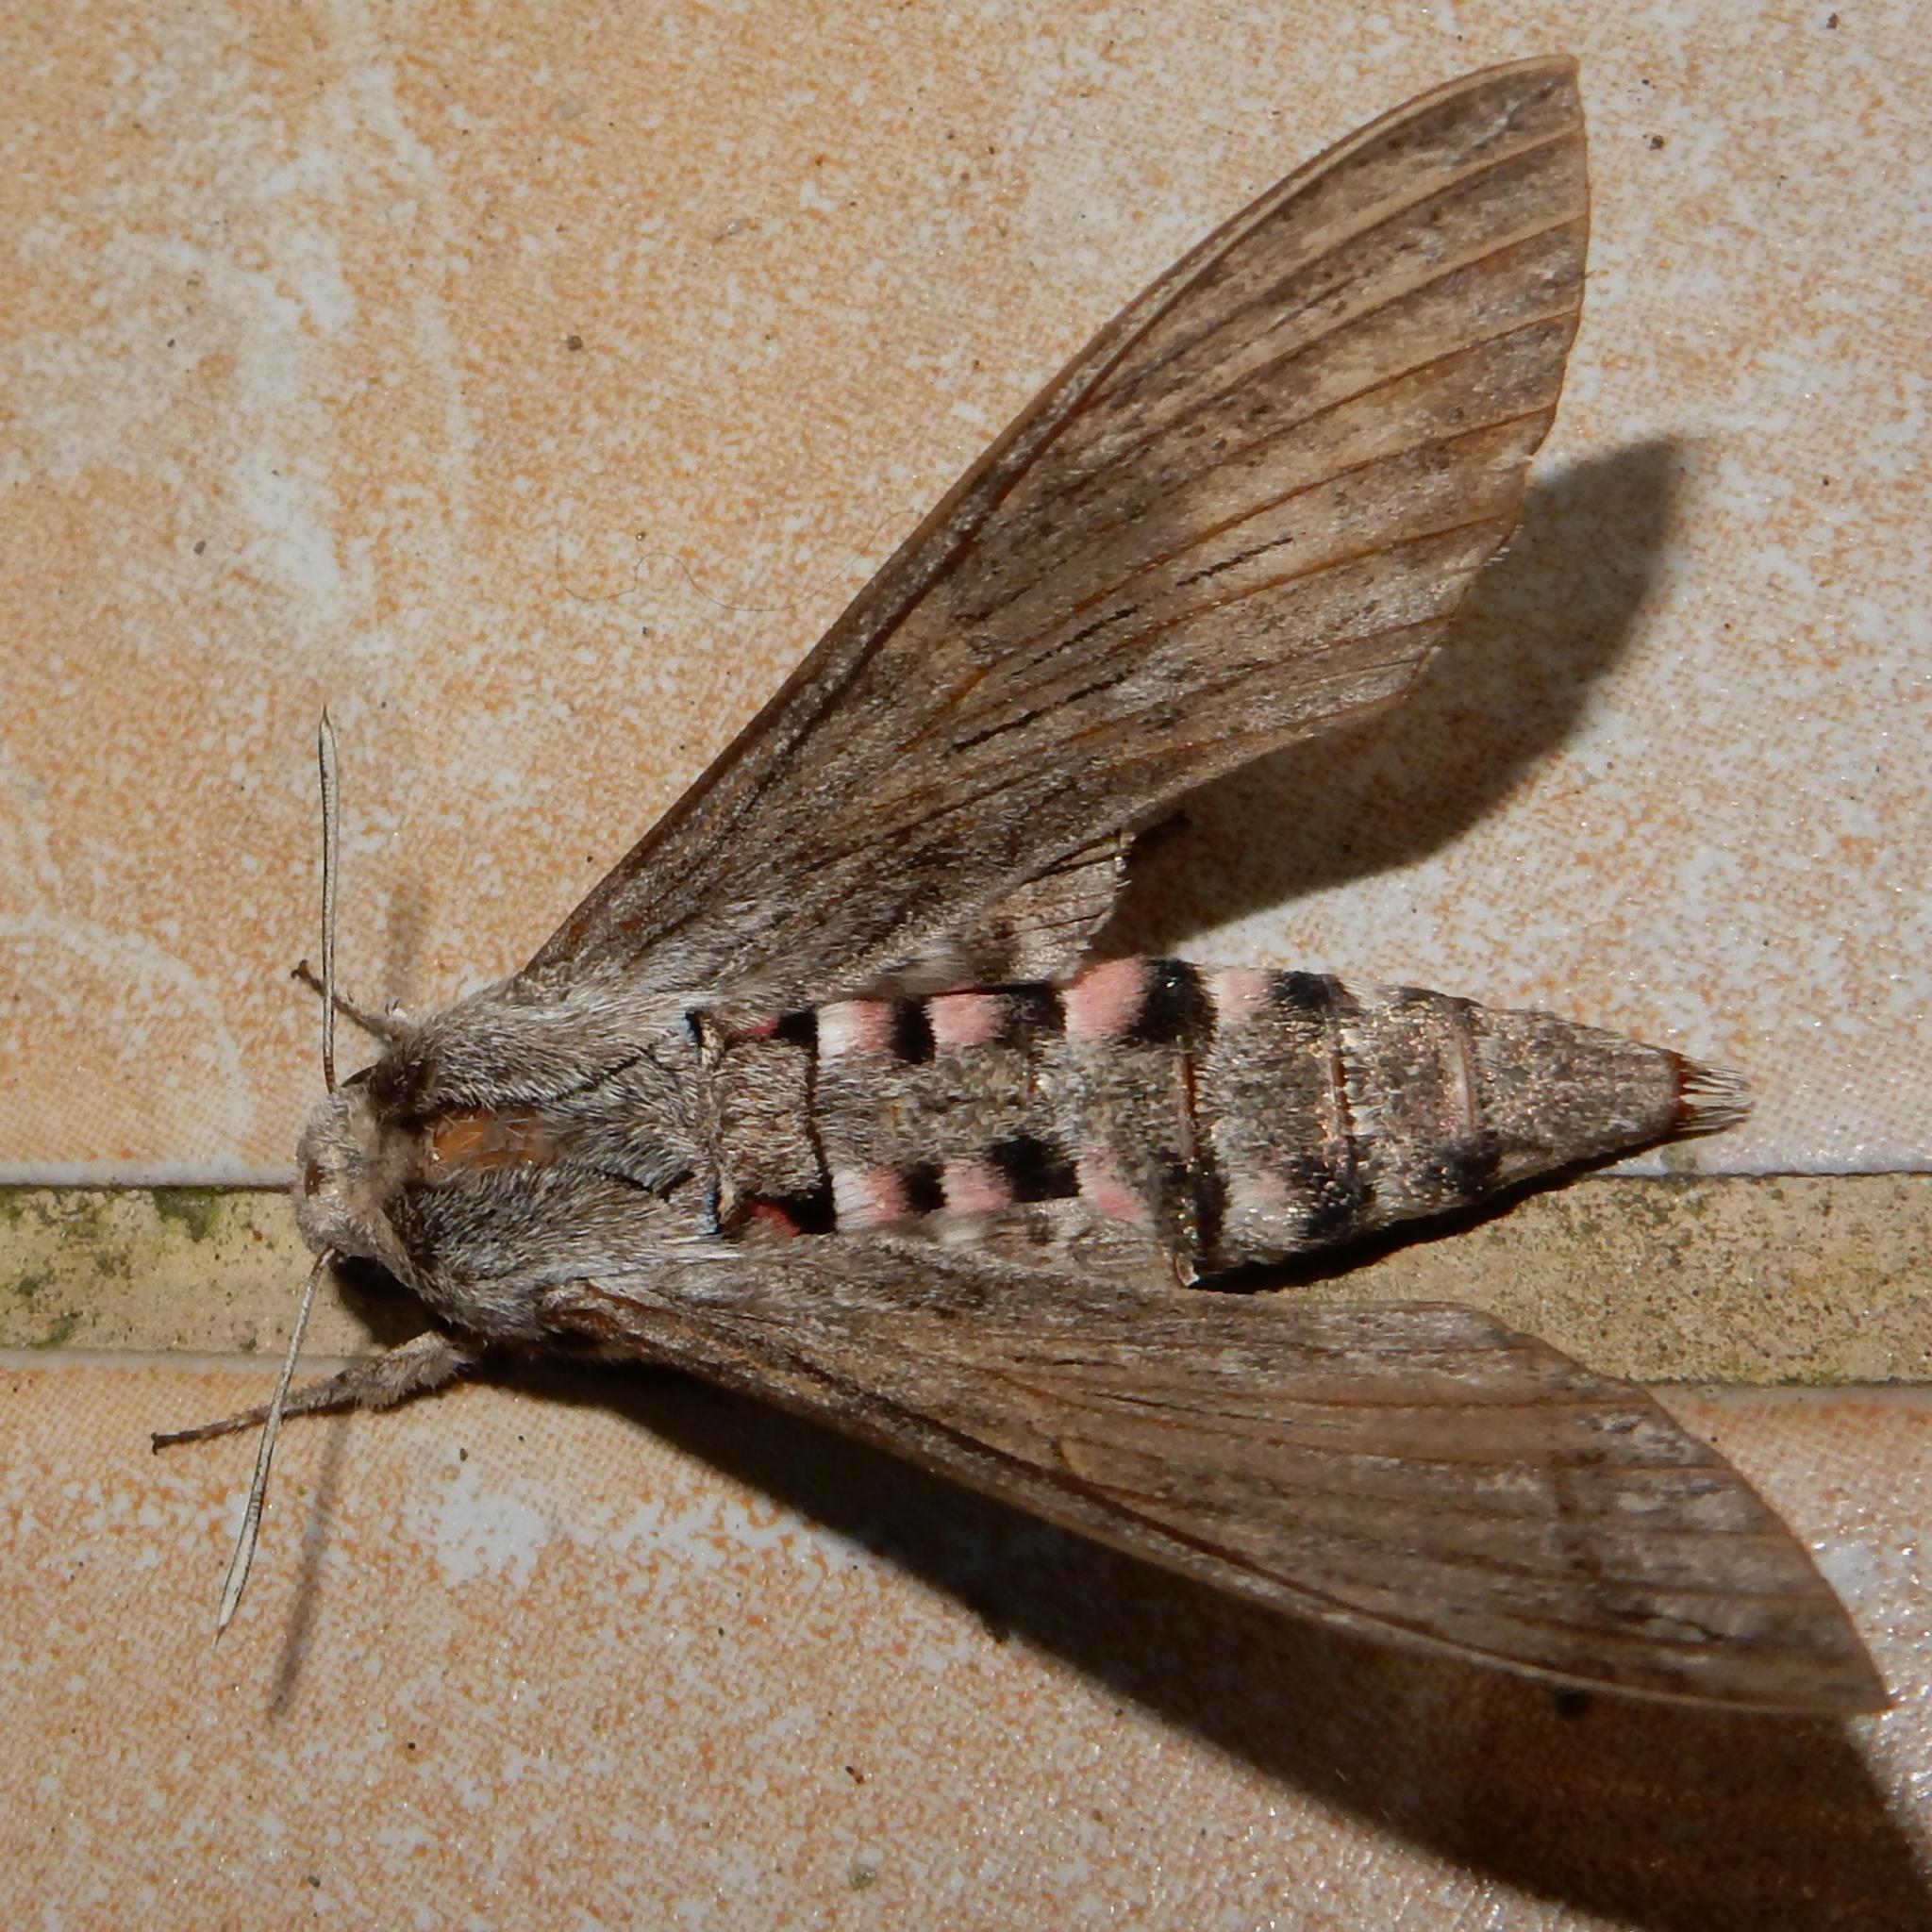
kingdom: Animalia
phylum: Arthropoda
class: Insecta
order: Lepidoptera
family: Sphingidae
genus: Agrius
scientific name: Agrius convolvuli
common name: Convolvulus hawkmoth
